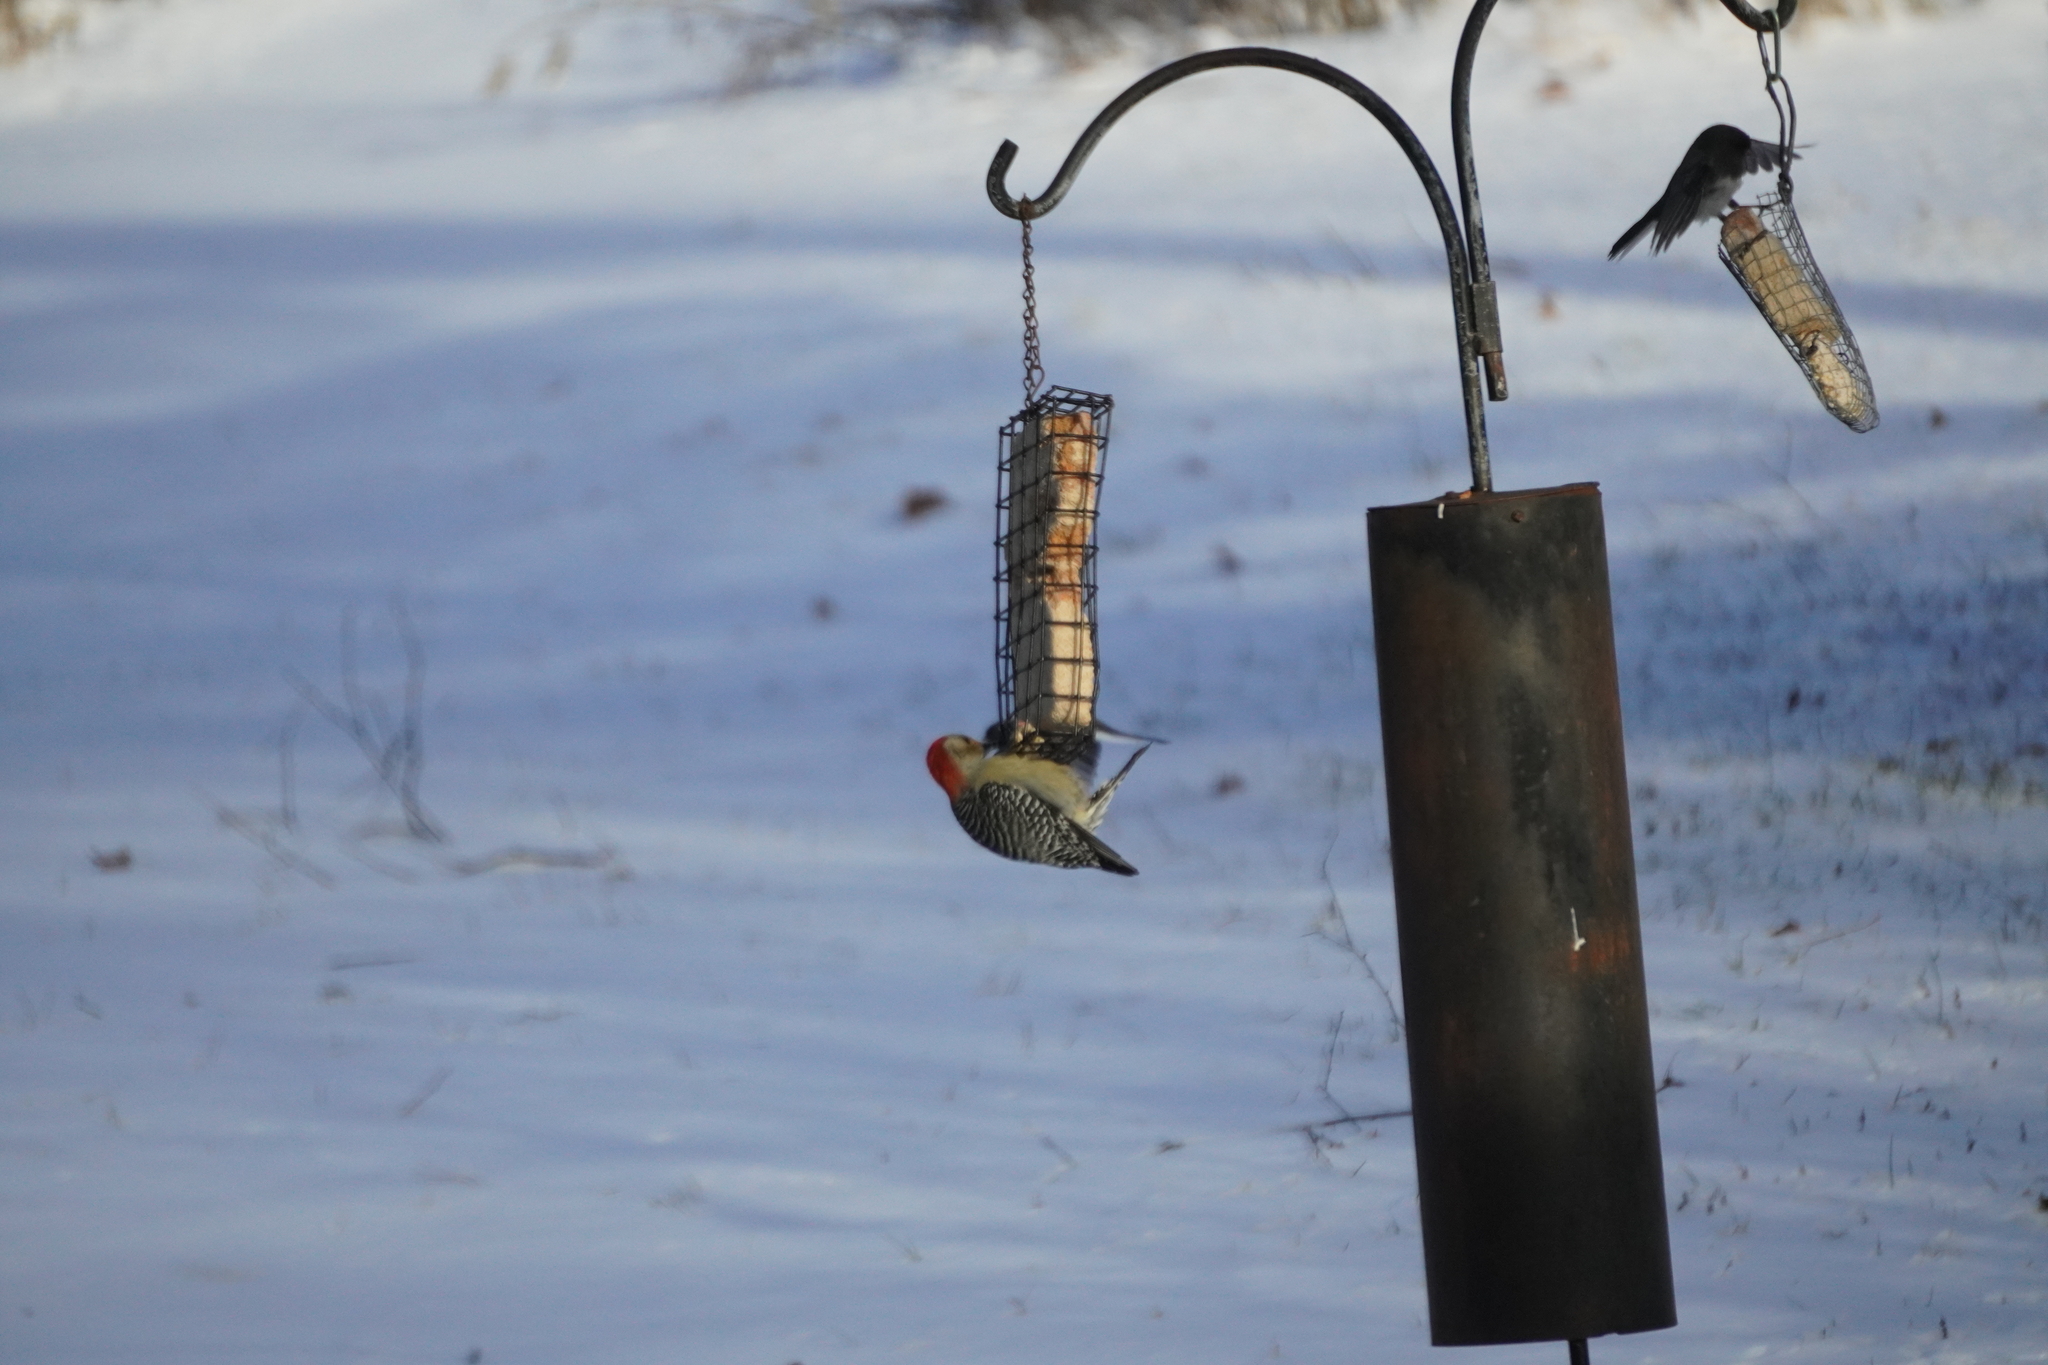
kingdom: Animalia
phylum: Chordata
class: Aves
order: Piciformes
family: Picidae
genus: Melanerpes
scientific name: Melanerpes carolinus
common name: Red-bellied woodpecker
